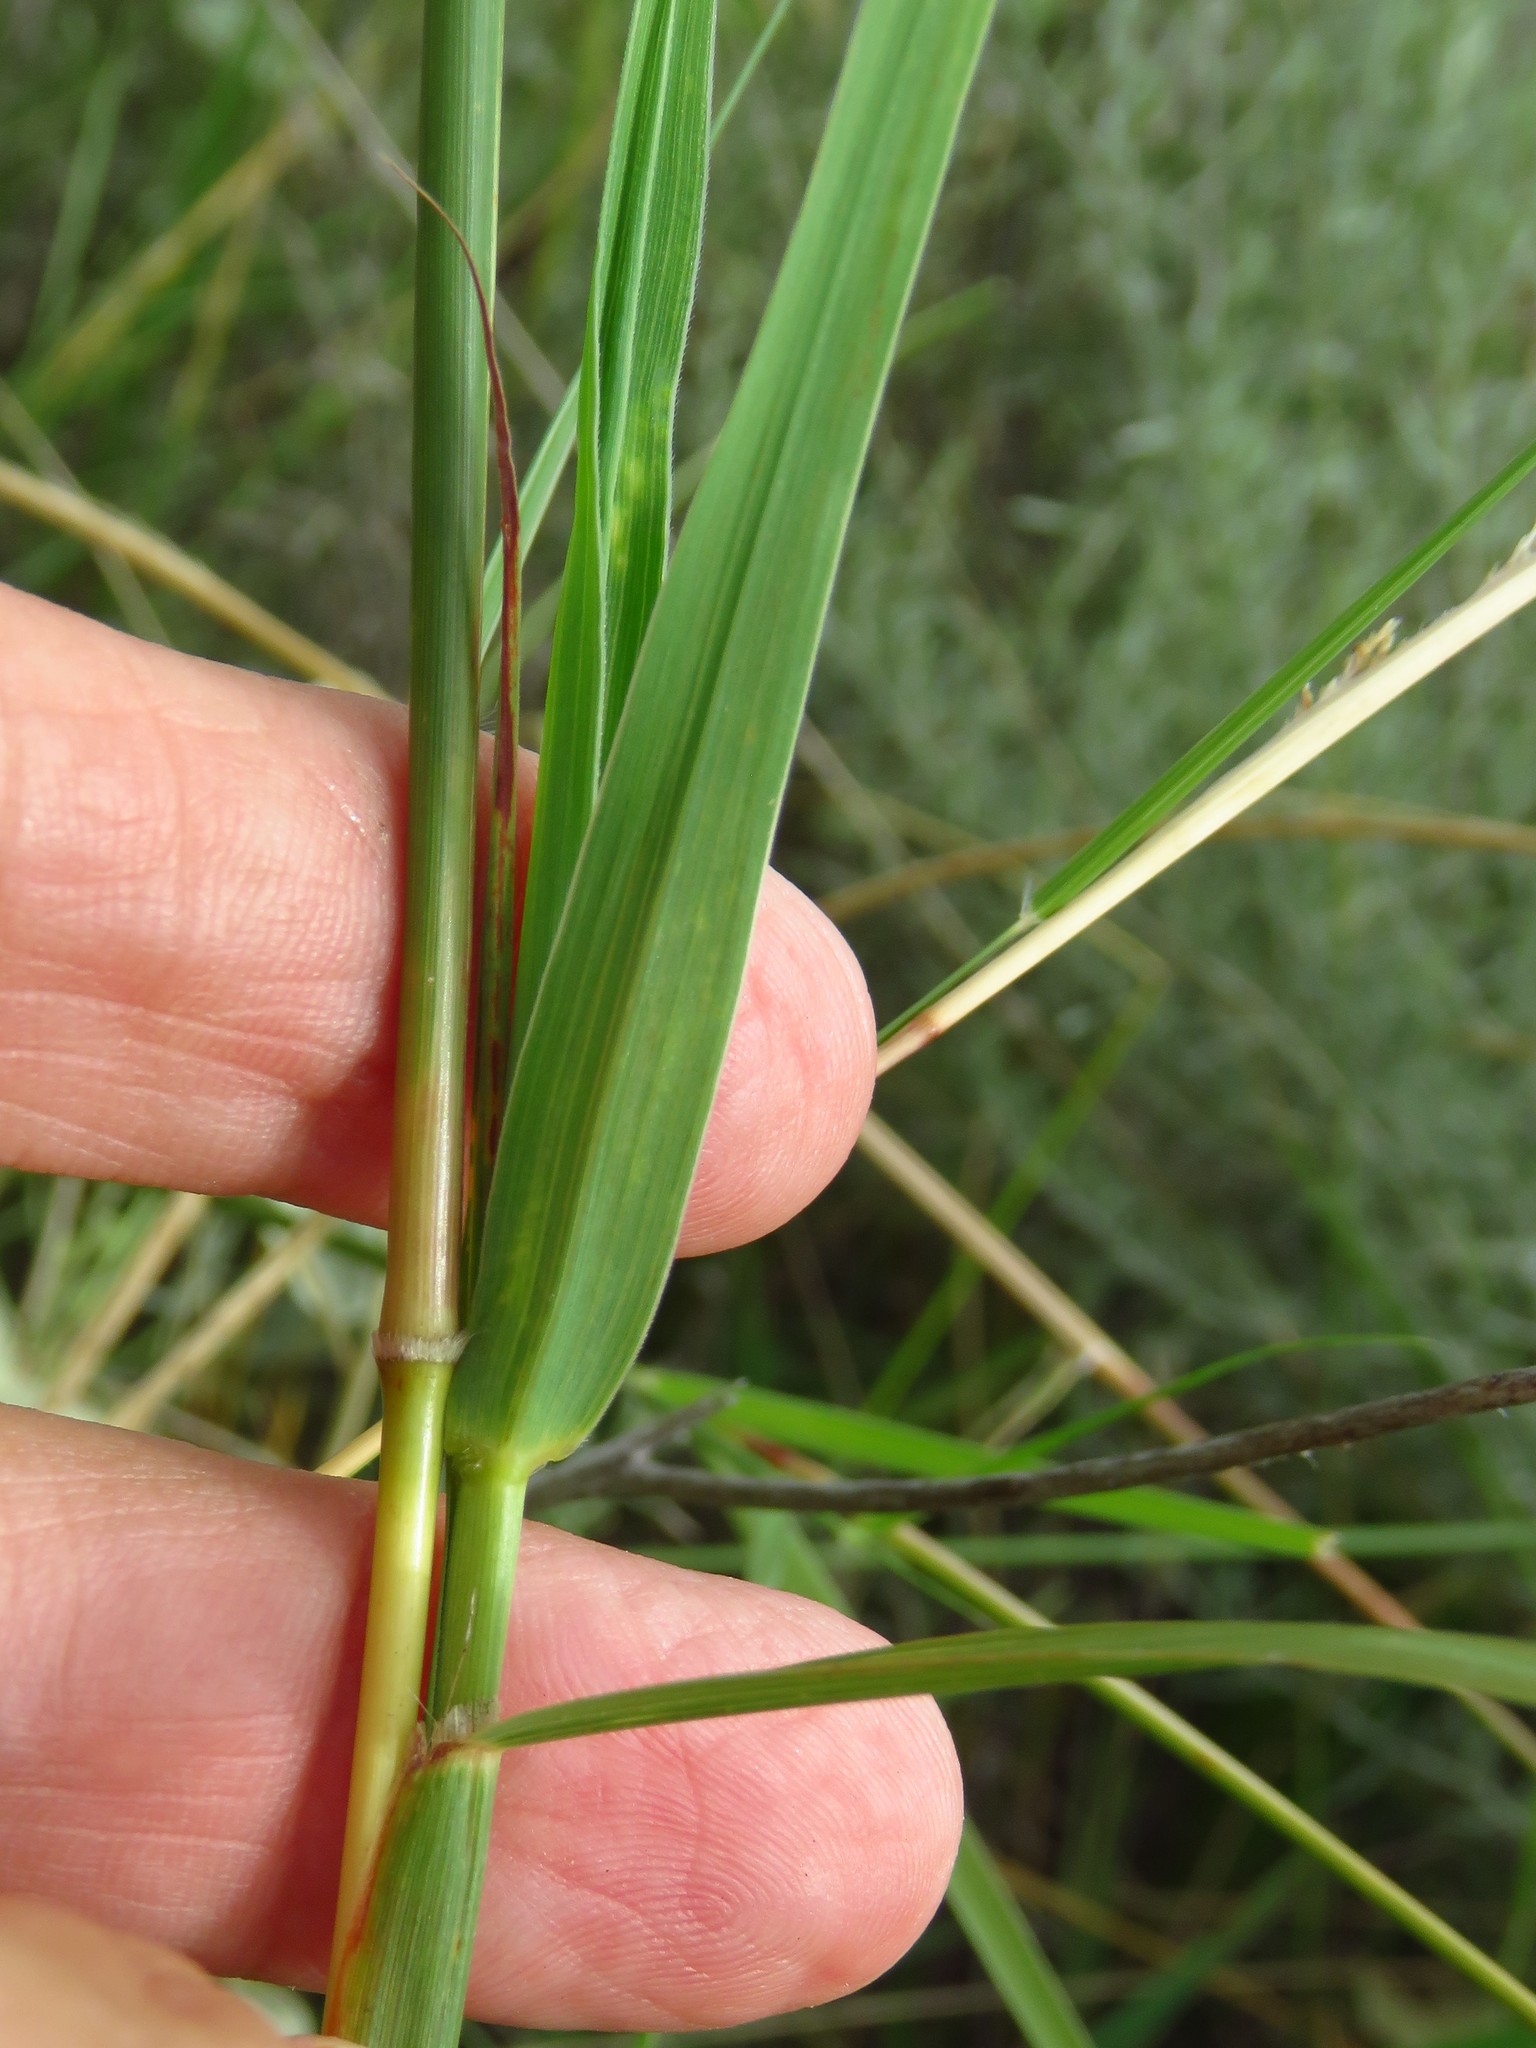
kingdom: Plantae
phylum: Tracheophyta
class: Liliopsida
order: Poales
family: Poaceae
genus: Bothriochloa
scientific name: Bothriochloa barbinodis
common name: Cane bluestem
